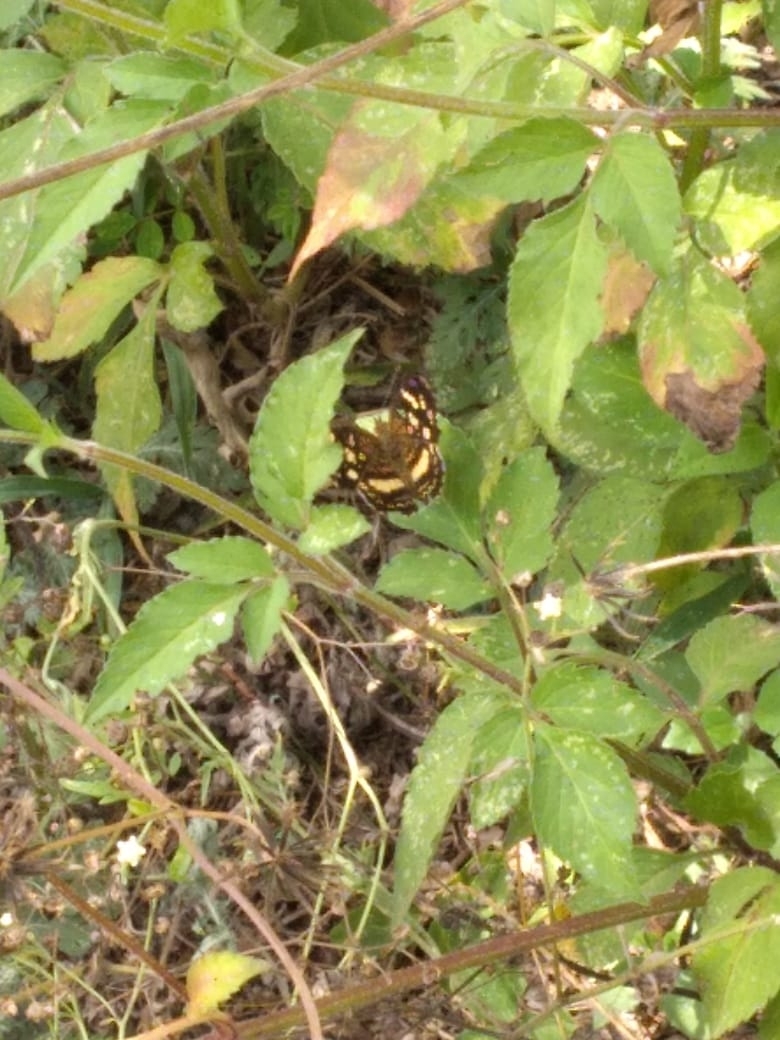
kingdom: Animalia
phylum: Arthropoda
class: Insecta
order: Lepidoptera
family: Nymphalidae
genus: Anthanassa
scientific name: Anthanassa tulcis
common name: Pale-banded crescent
